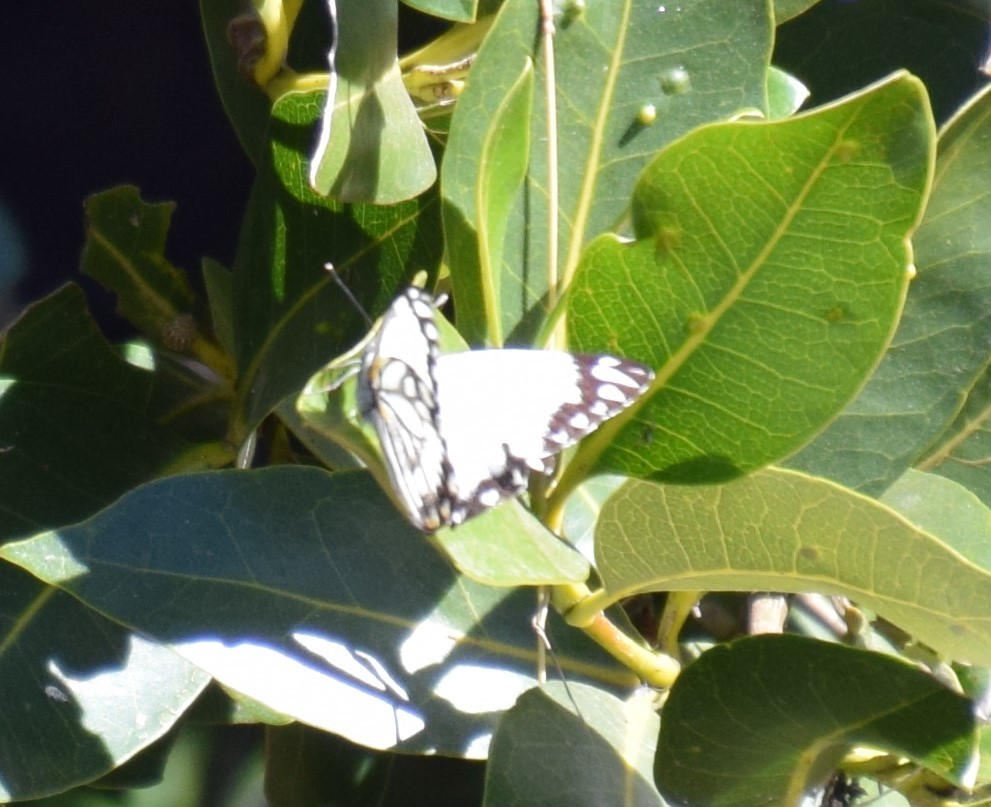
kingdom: Animalia
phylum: Arthropoda
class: Insecta
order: Lepidoptera
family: Pieridae
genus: Belenois
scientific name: Belenois java
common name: Caper white
